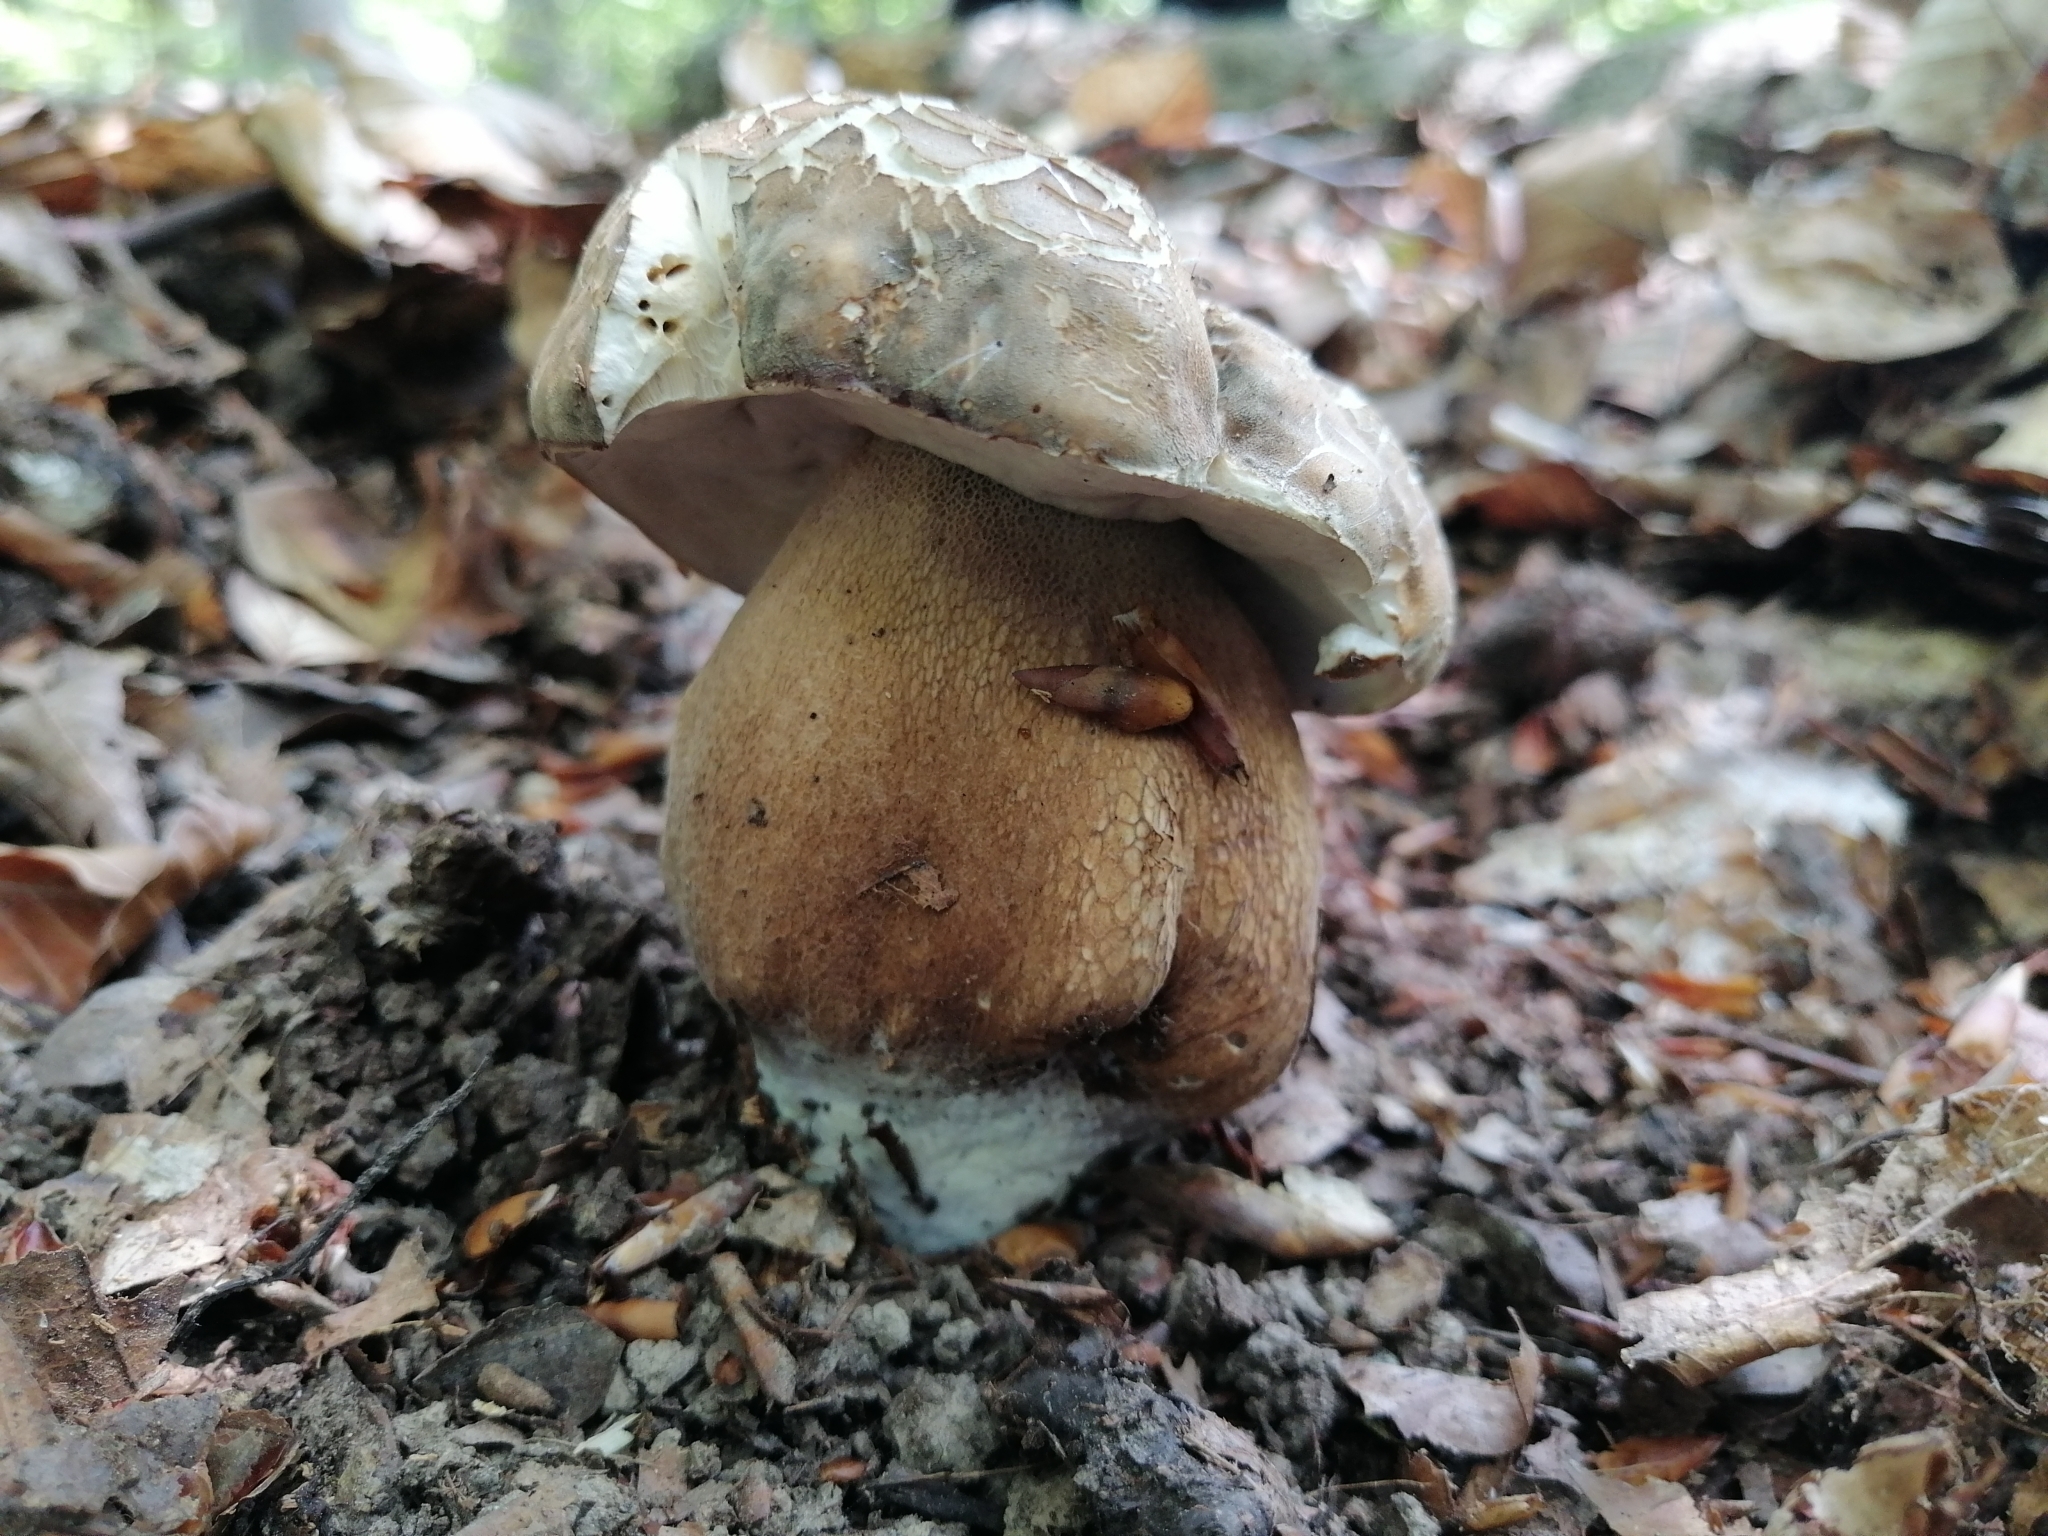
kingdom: Fungi
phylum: Basidiomycota
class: Agaricomycetes
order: Boletales
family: Boletaceae
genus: Boletus
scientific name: Boletus aereus
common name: Bronze bolete
